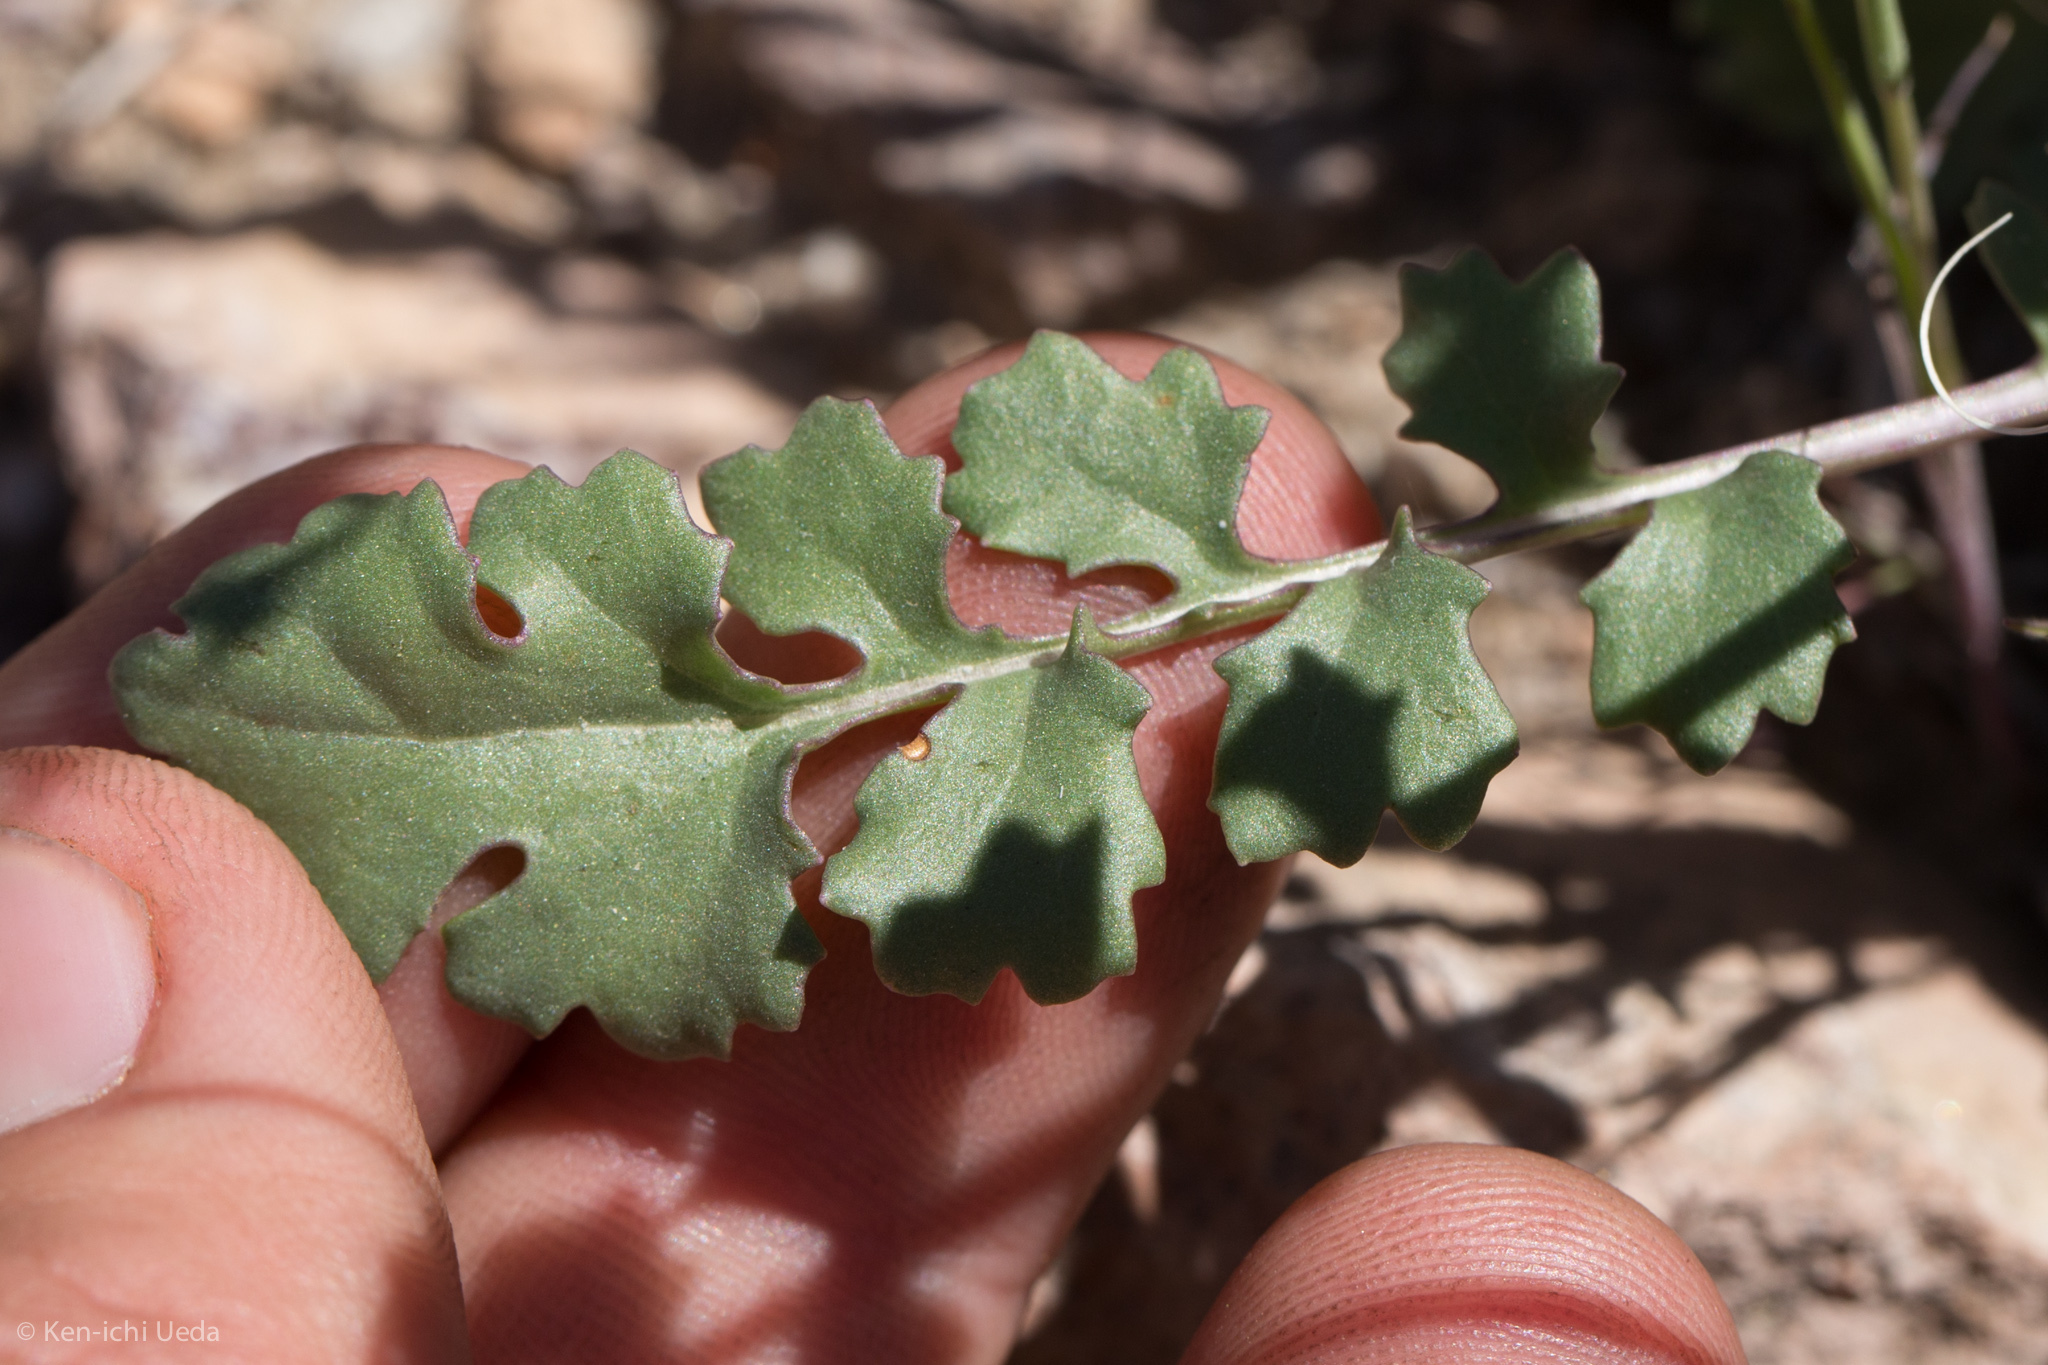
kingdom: Plantae
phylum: Tracheophyta
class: Magnoliopsida
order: Asterales
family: Asteraceae
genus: Packera
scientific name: Packera multilobata
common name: Lobe-leaf groundsel
